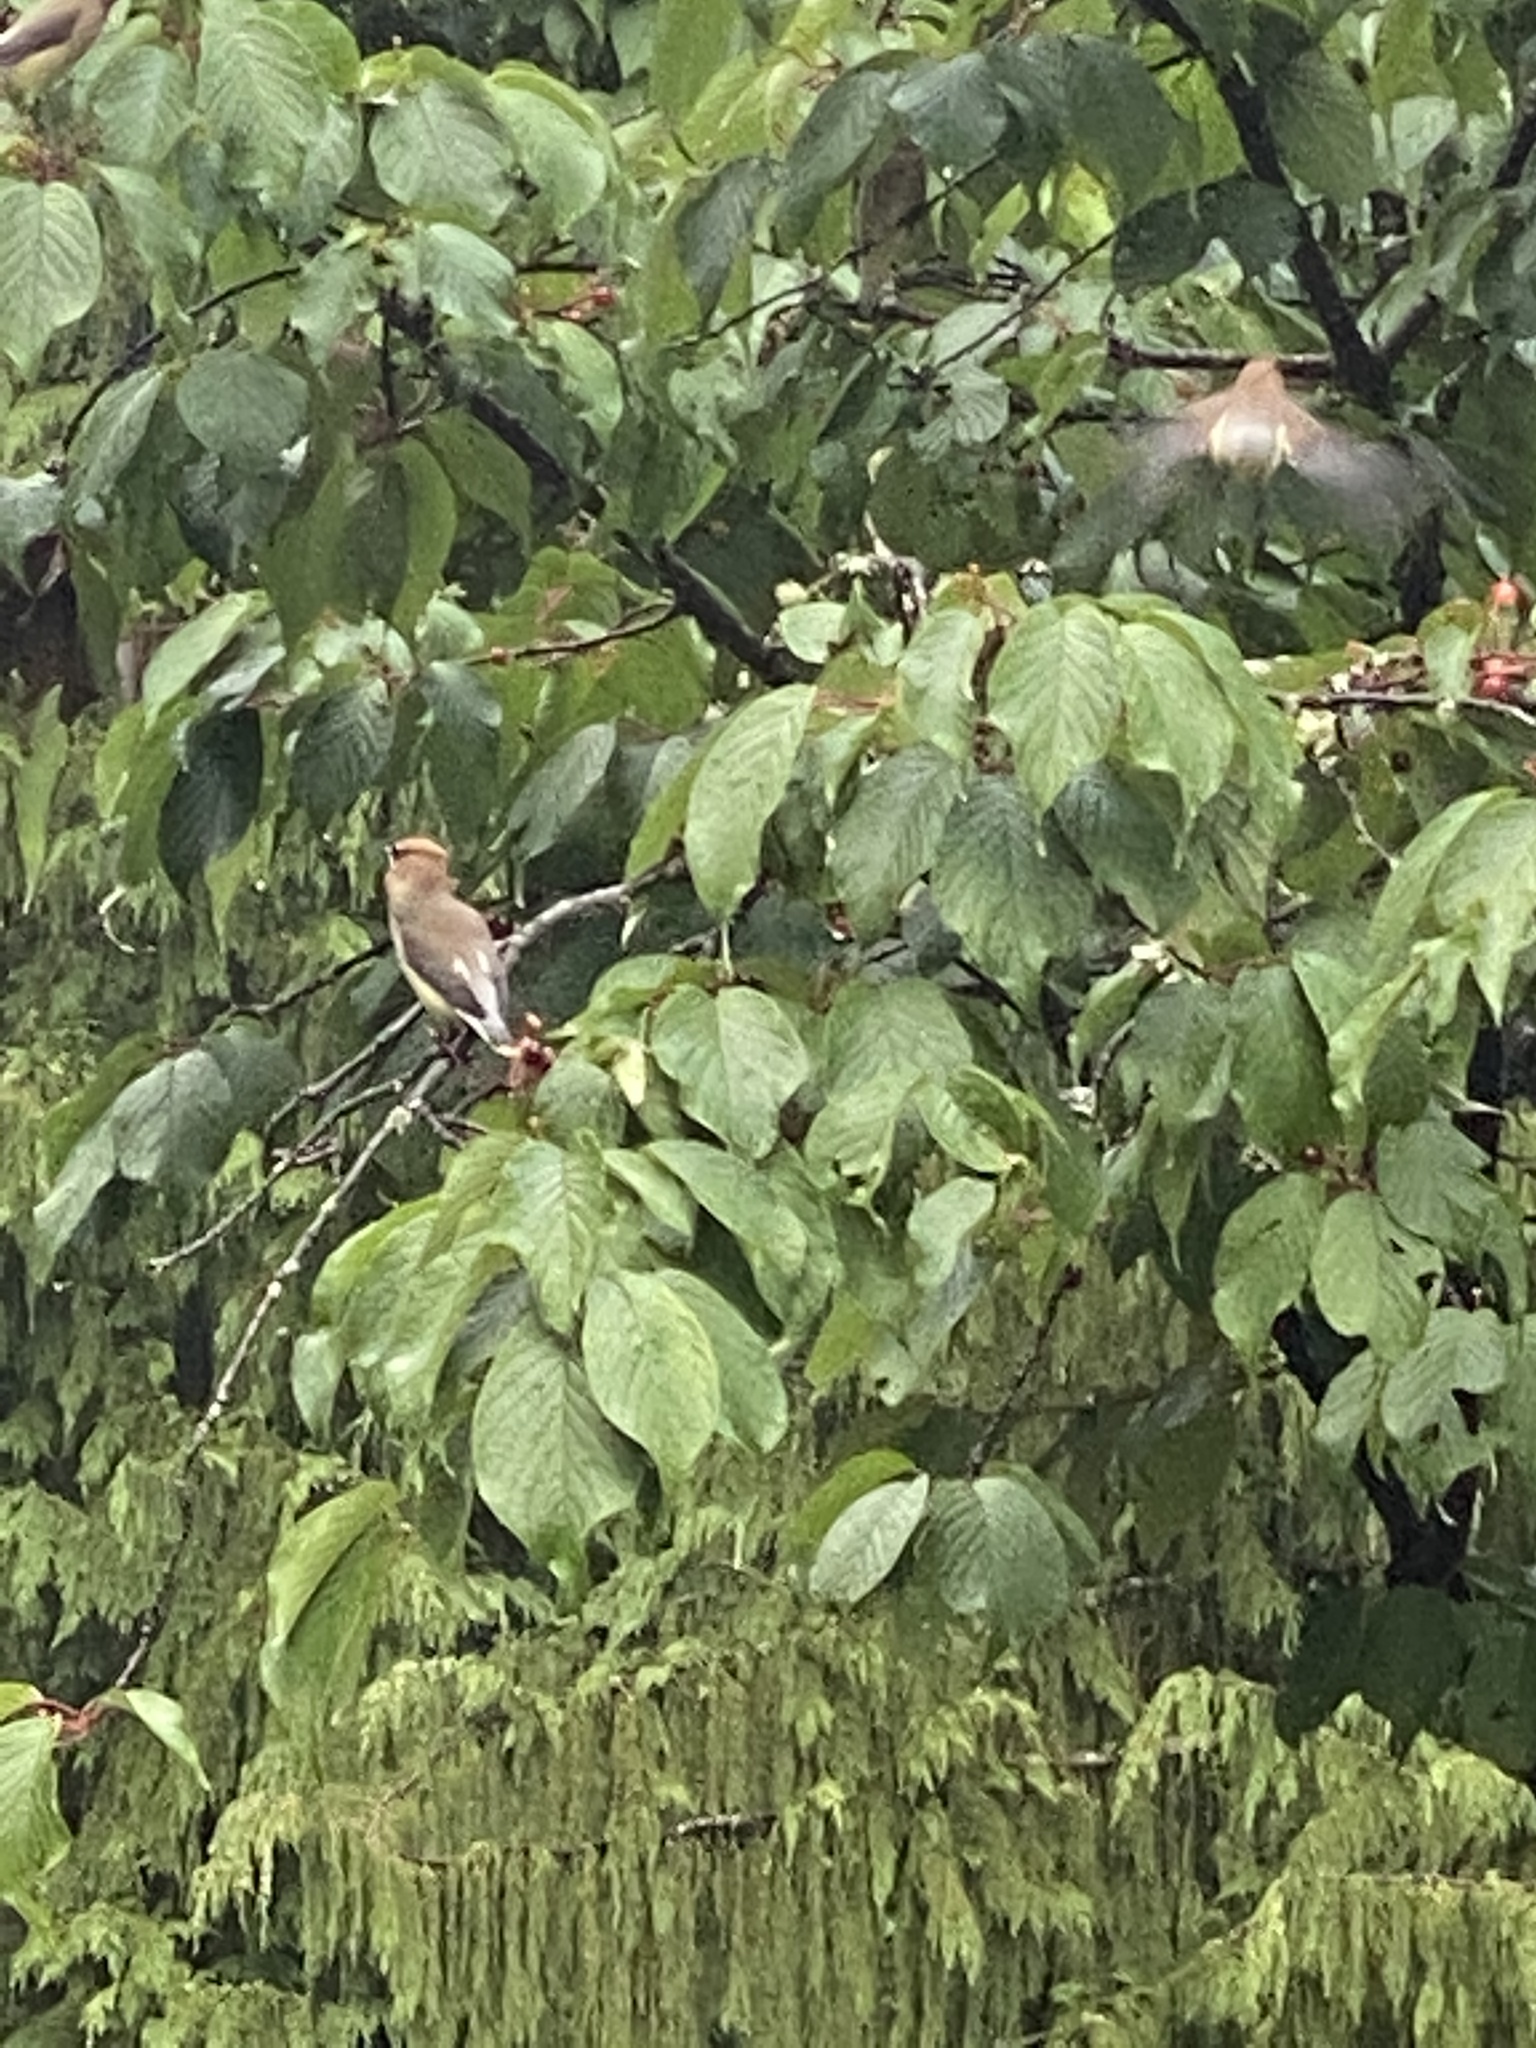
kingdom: Animalia
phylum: Chordata
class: Aves
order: Passeriformes
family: Bombycillidae
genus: Bombycilla
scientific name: Bombycilla cedrorum
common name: Cedar waxwing
